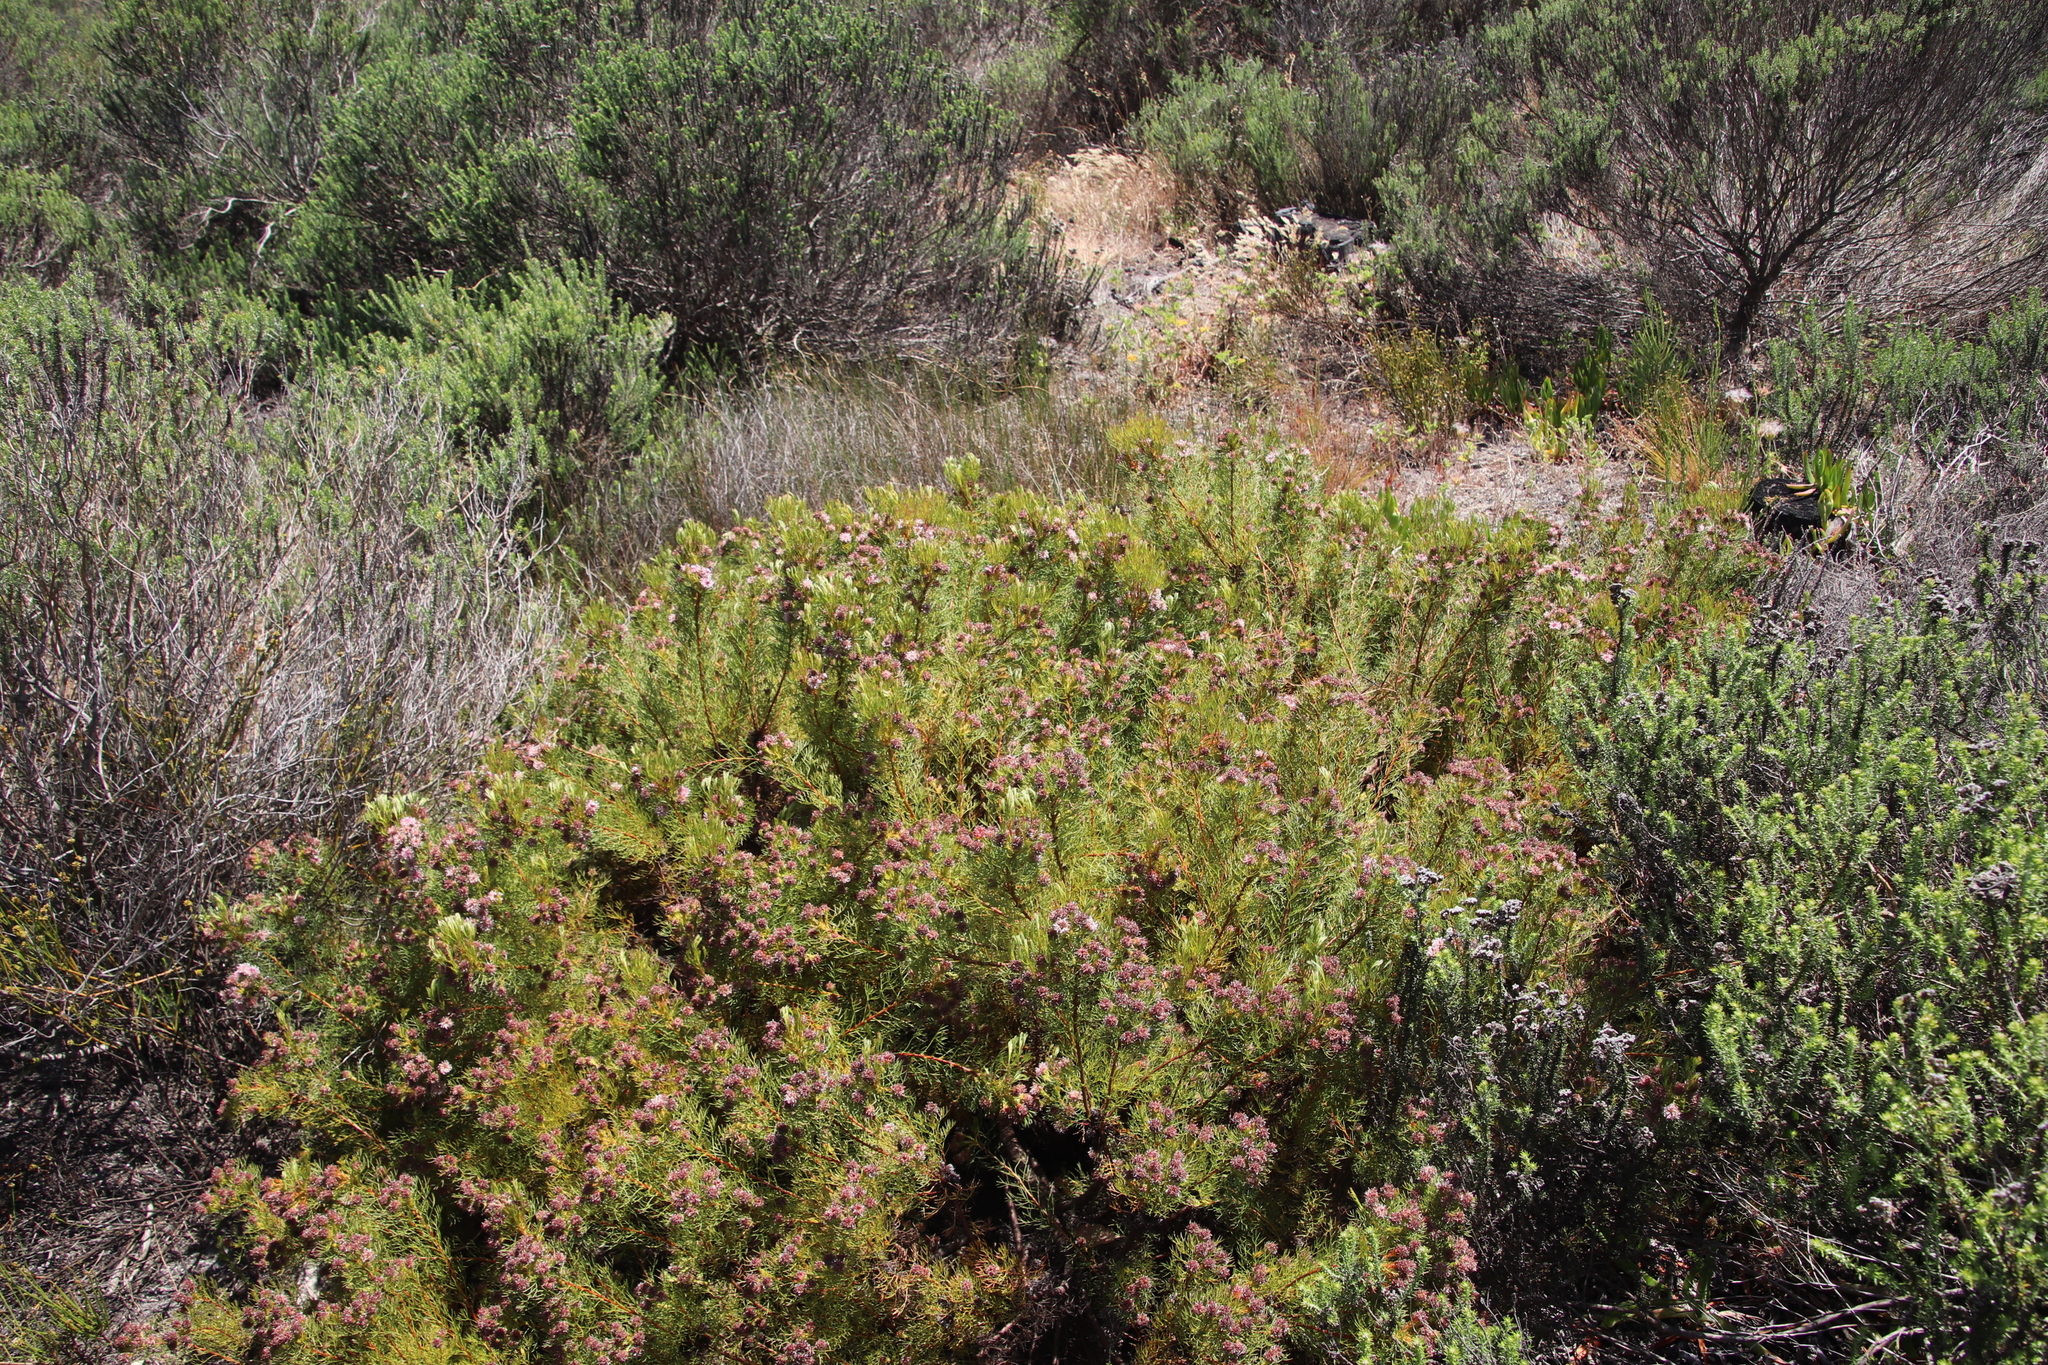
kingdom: Plantae
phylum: Tracheophyta
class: Magnoliopsida
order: Proteales
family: Proteaceae
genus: Serruria
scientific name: Serruria
